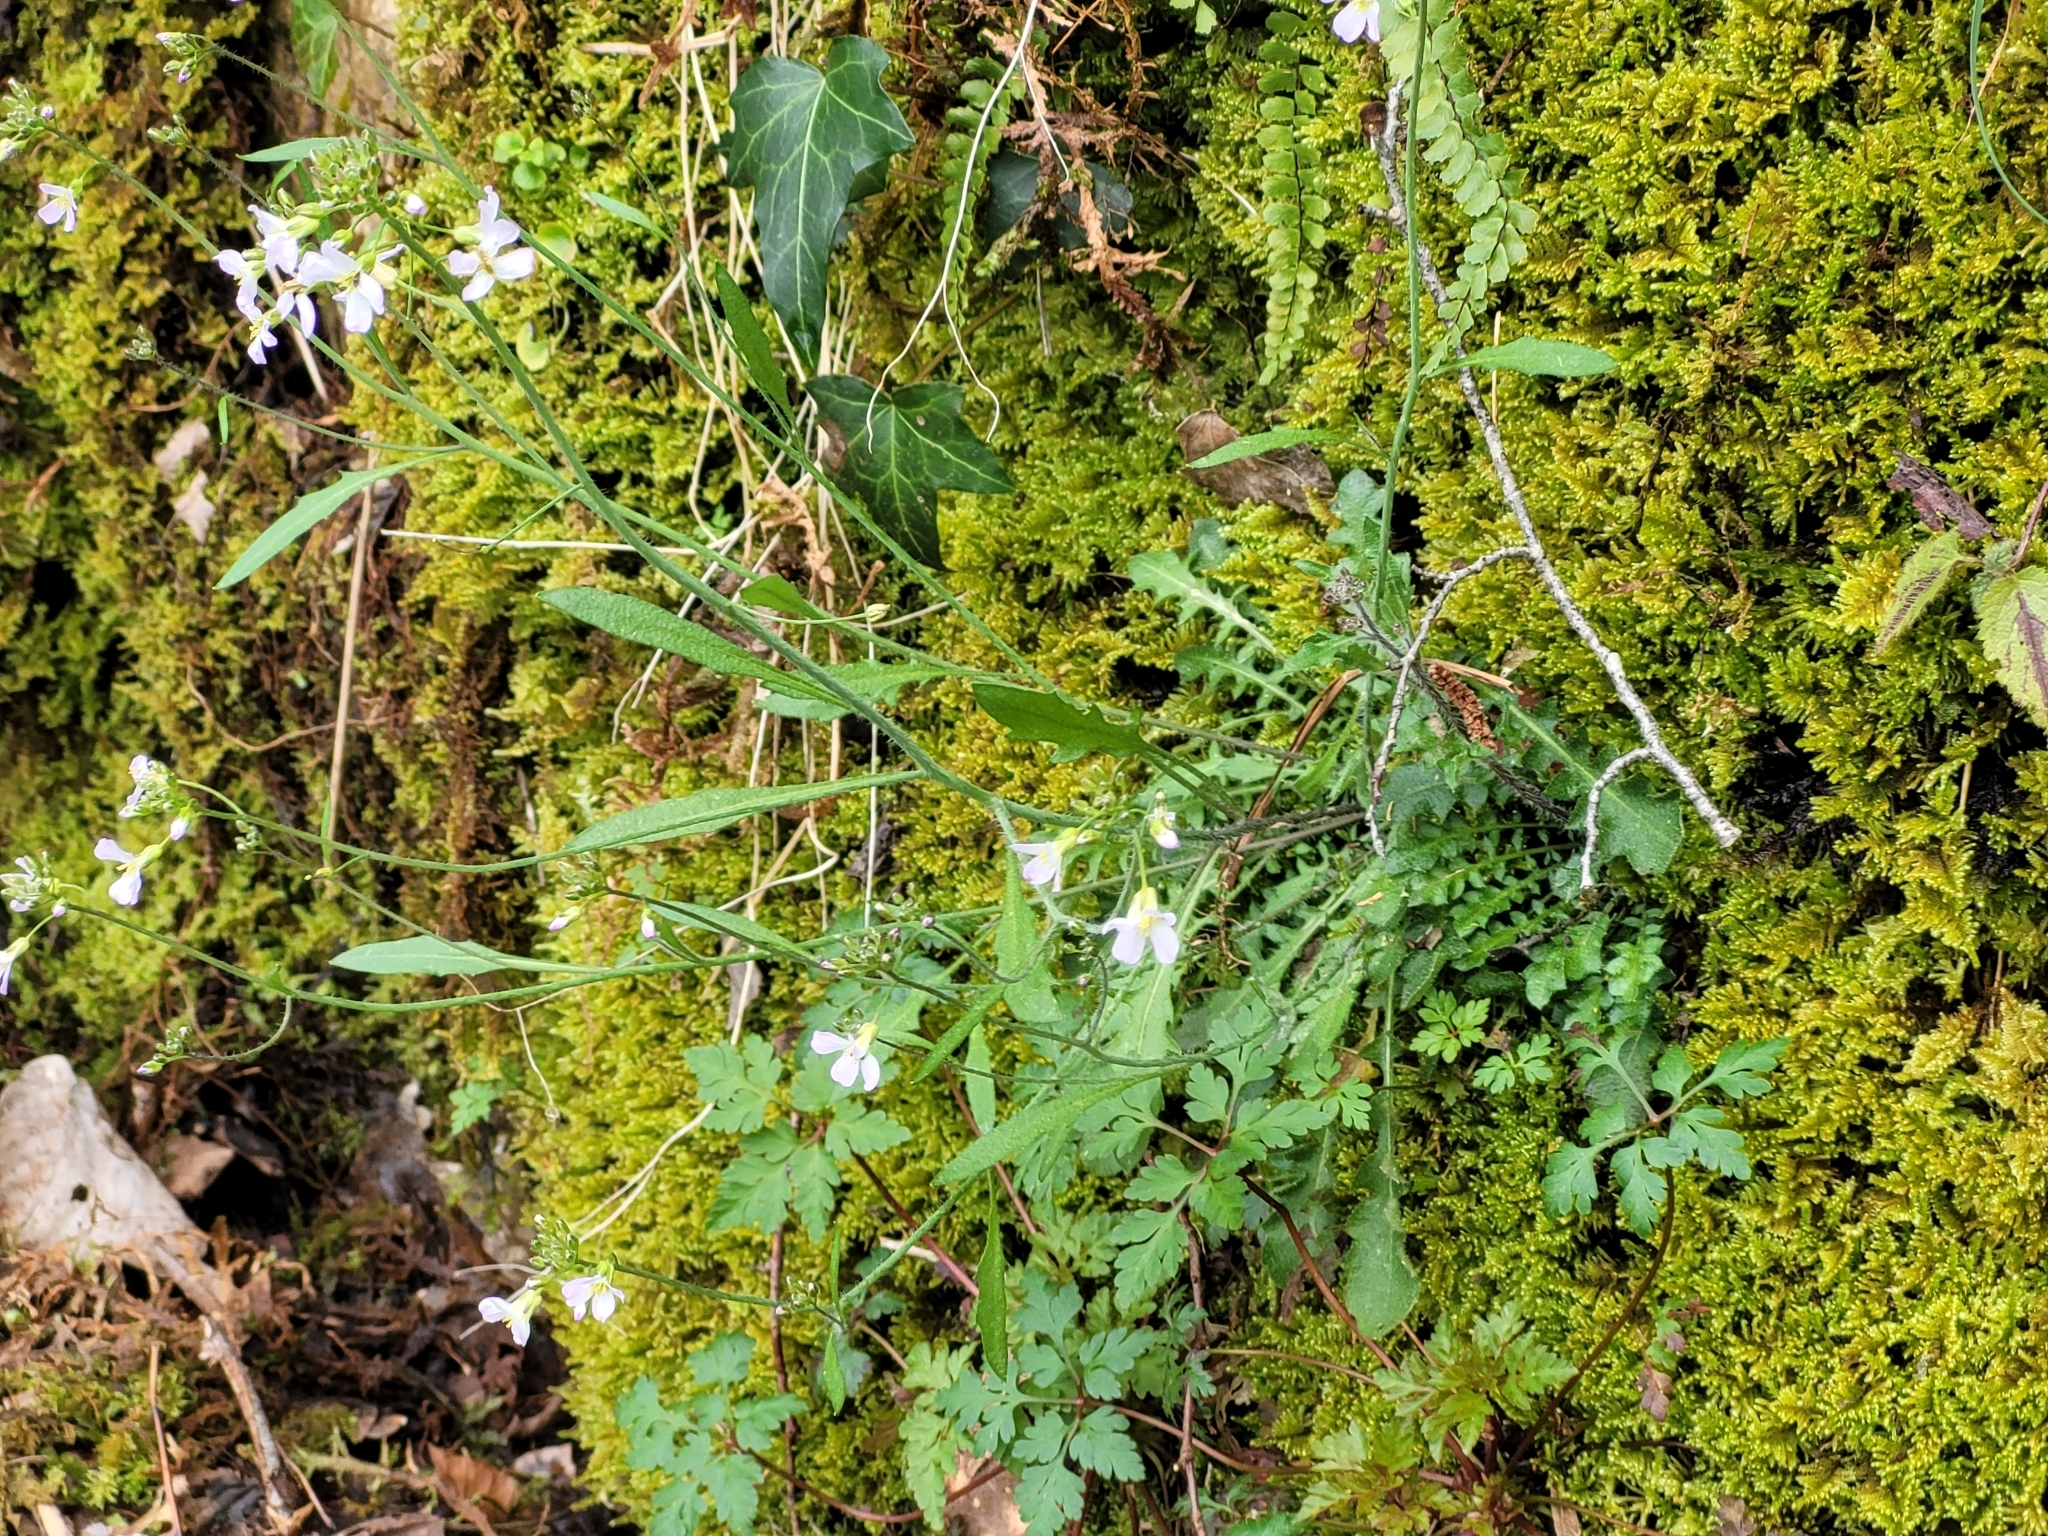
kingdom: Plantae
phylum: Tracheophyta
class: Magnoliopsida
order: Brassicales
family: Brassicaceae
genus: Arabidopsis
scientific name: Arabidopsis arenosa
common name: Sand rock-cress
